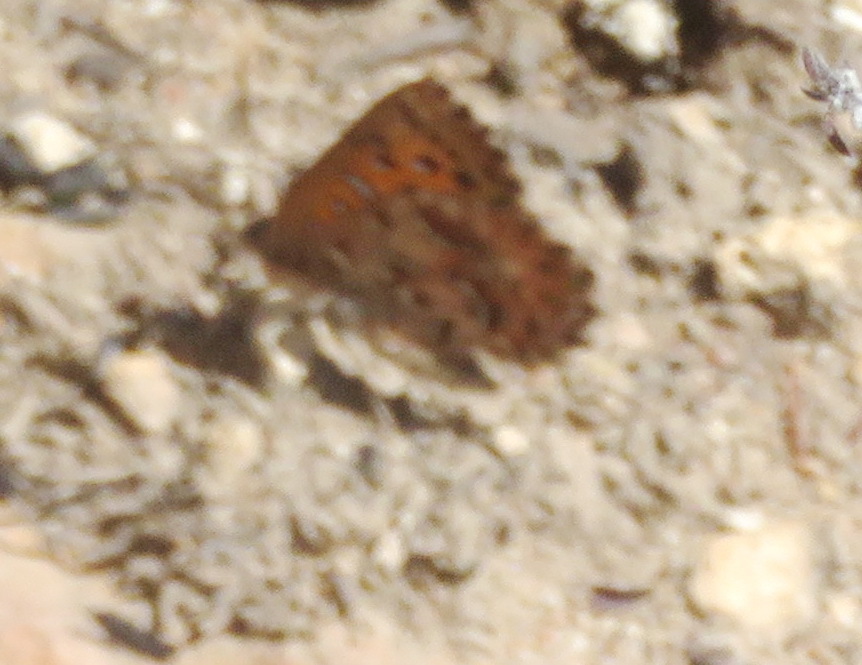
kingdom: Animalia
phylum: Arthropoda
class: Insecta
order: Lepidoptera
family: Lycaenidae
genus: Aloeides
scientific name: Aloeides pierus
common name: Dull copper
